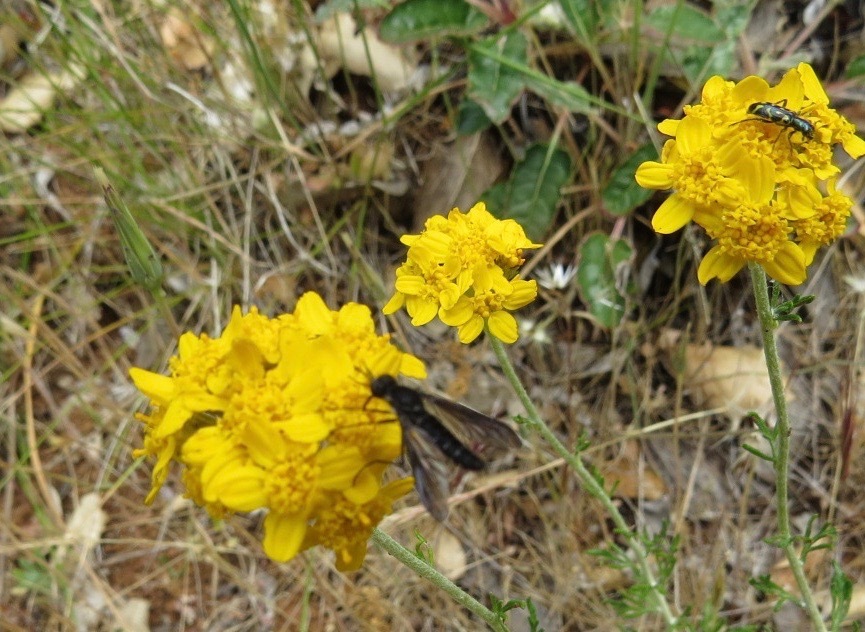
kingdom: Animalia
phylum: Arthropoda
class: Insecta
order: Coleoptera
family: Cleridae
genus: Trichodes
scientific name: Trichodes ornatus
